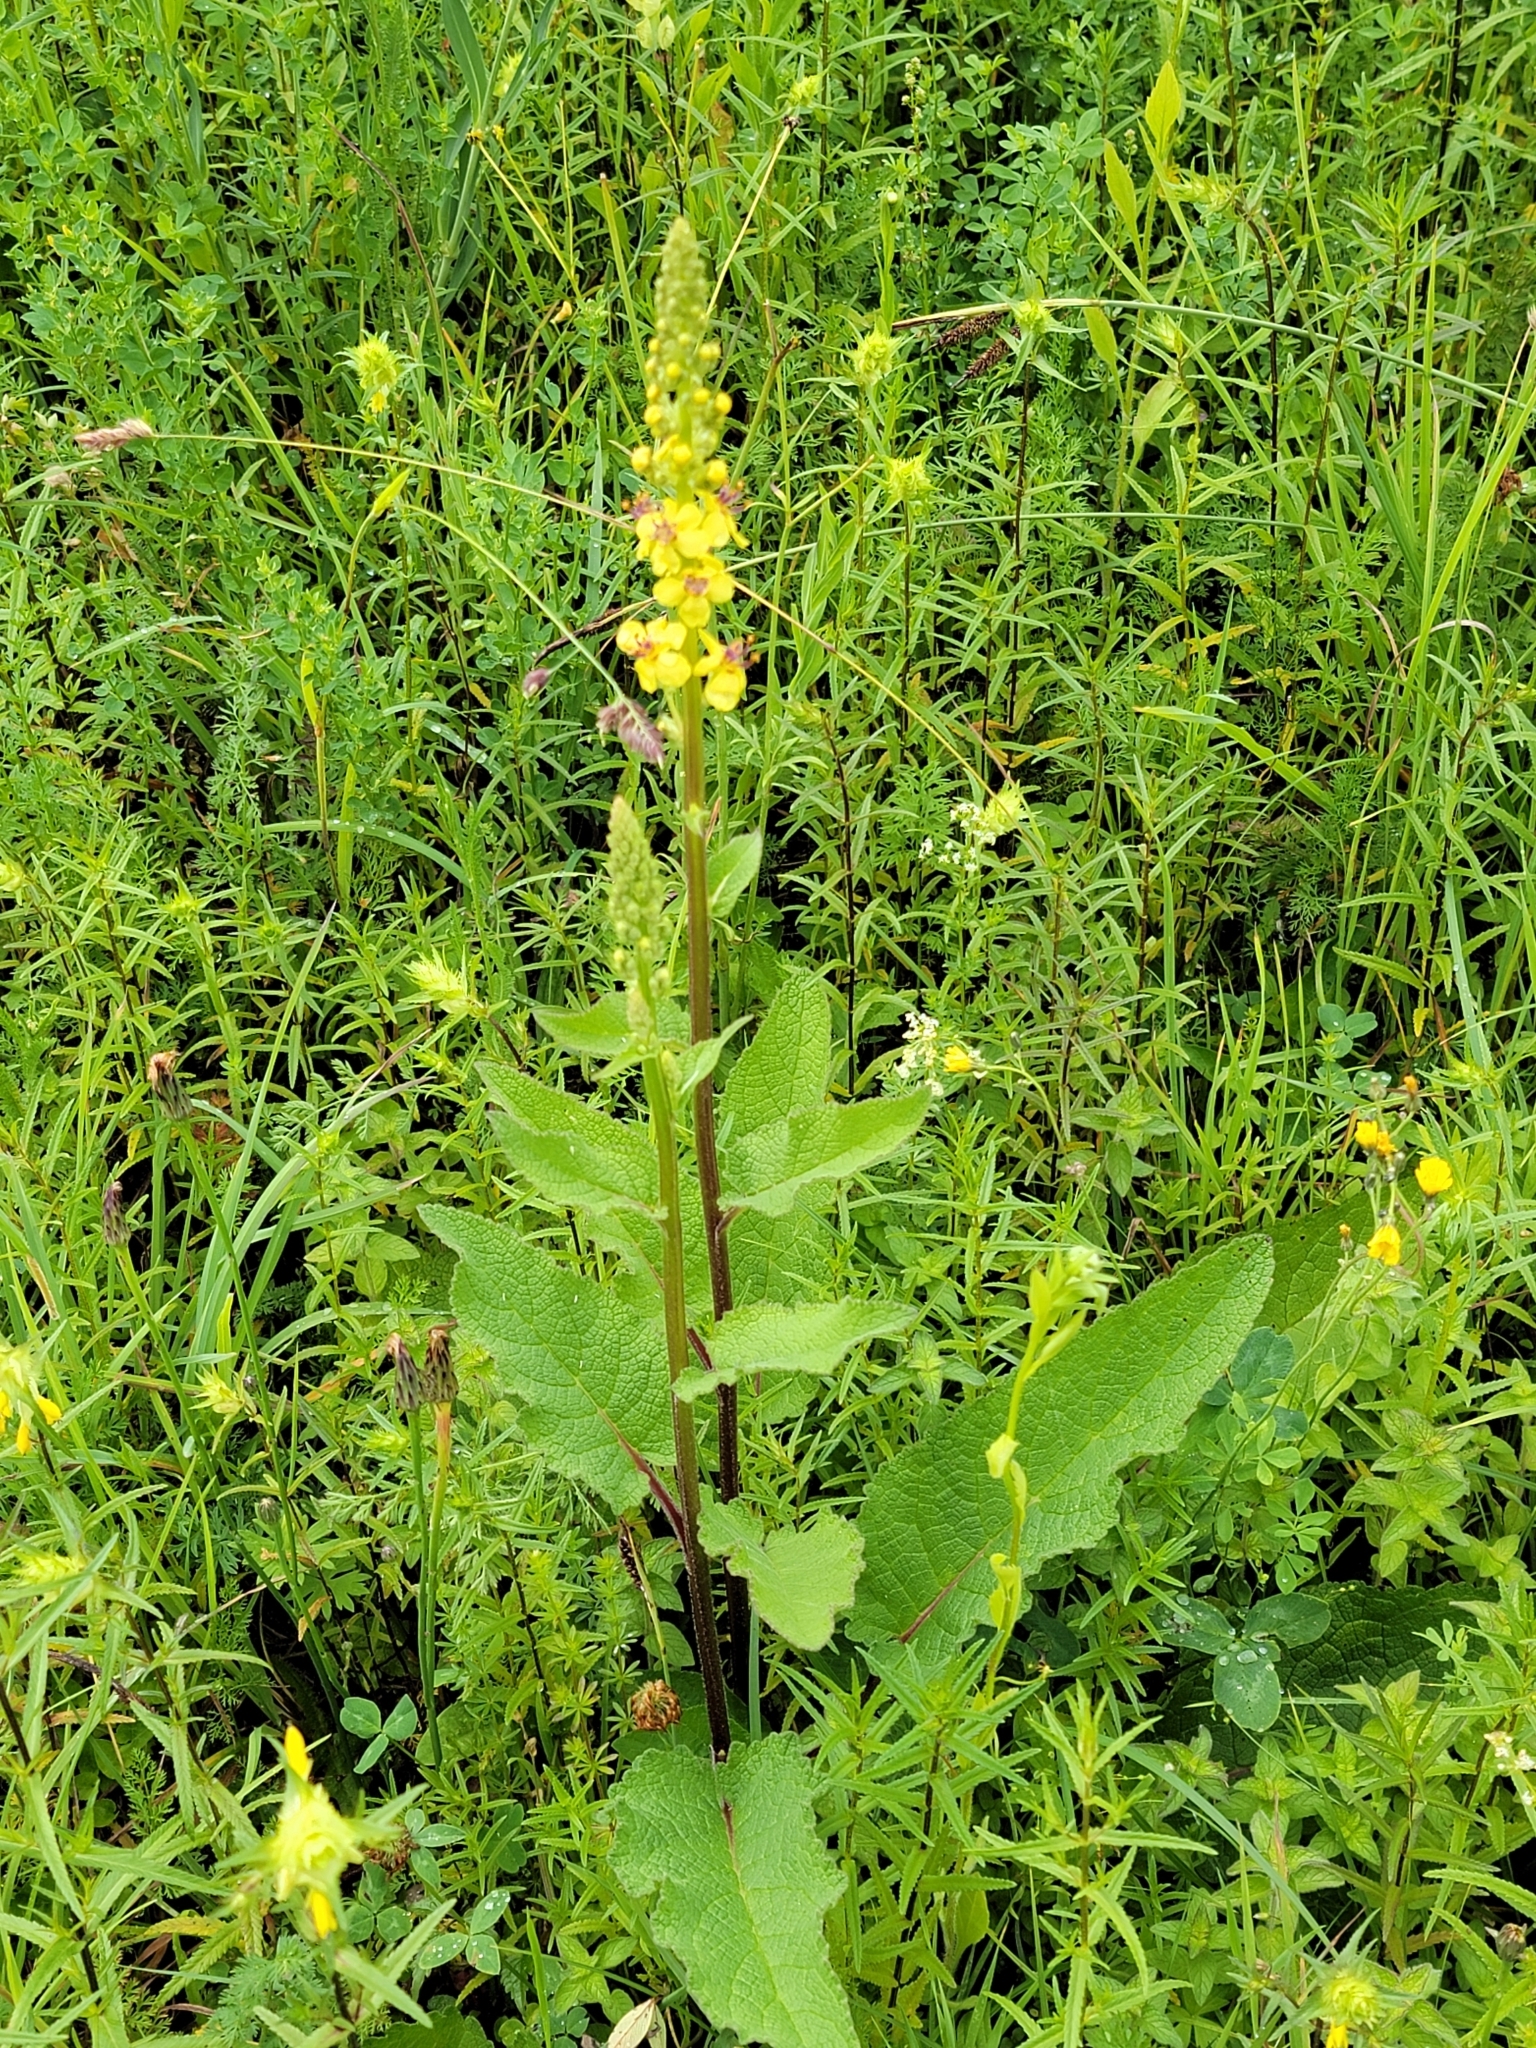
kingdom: Plantae
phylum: Tracheophyta
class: Magnoliopsida
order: Lamiales
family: Scrophulariaceae
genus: Verbascum
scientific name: Verbascum nigrum
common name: Dark mullein
